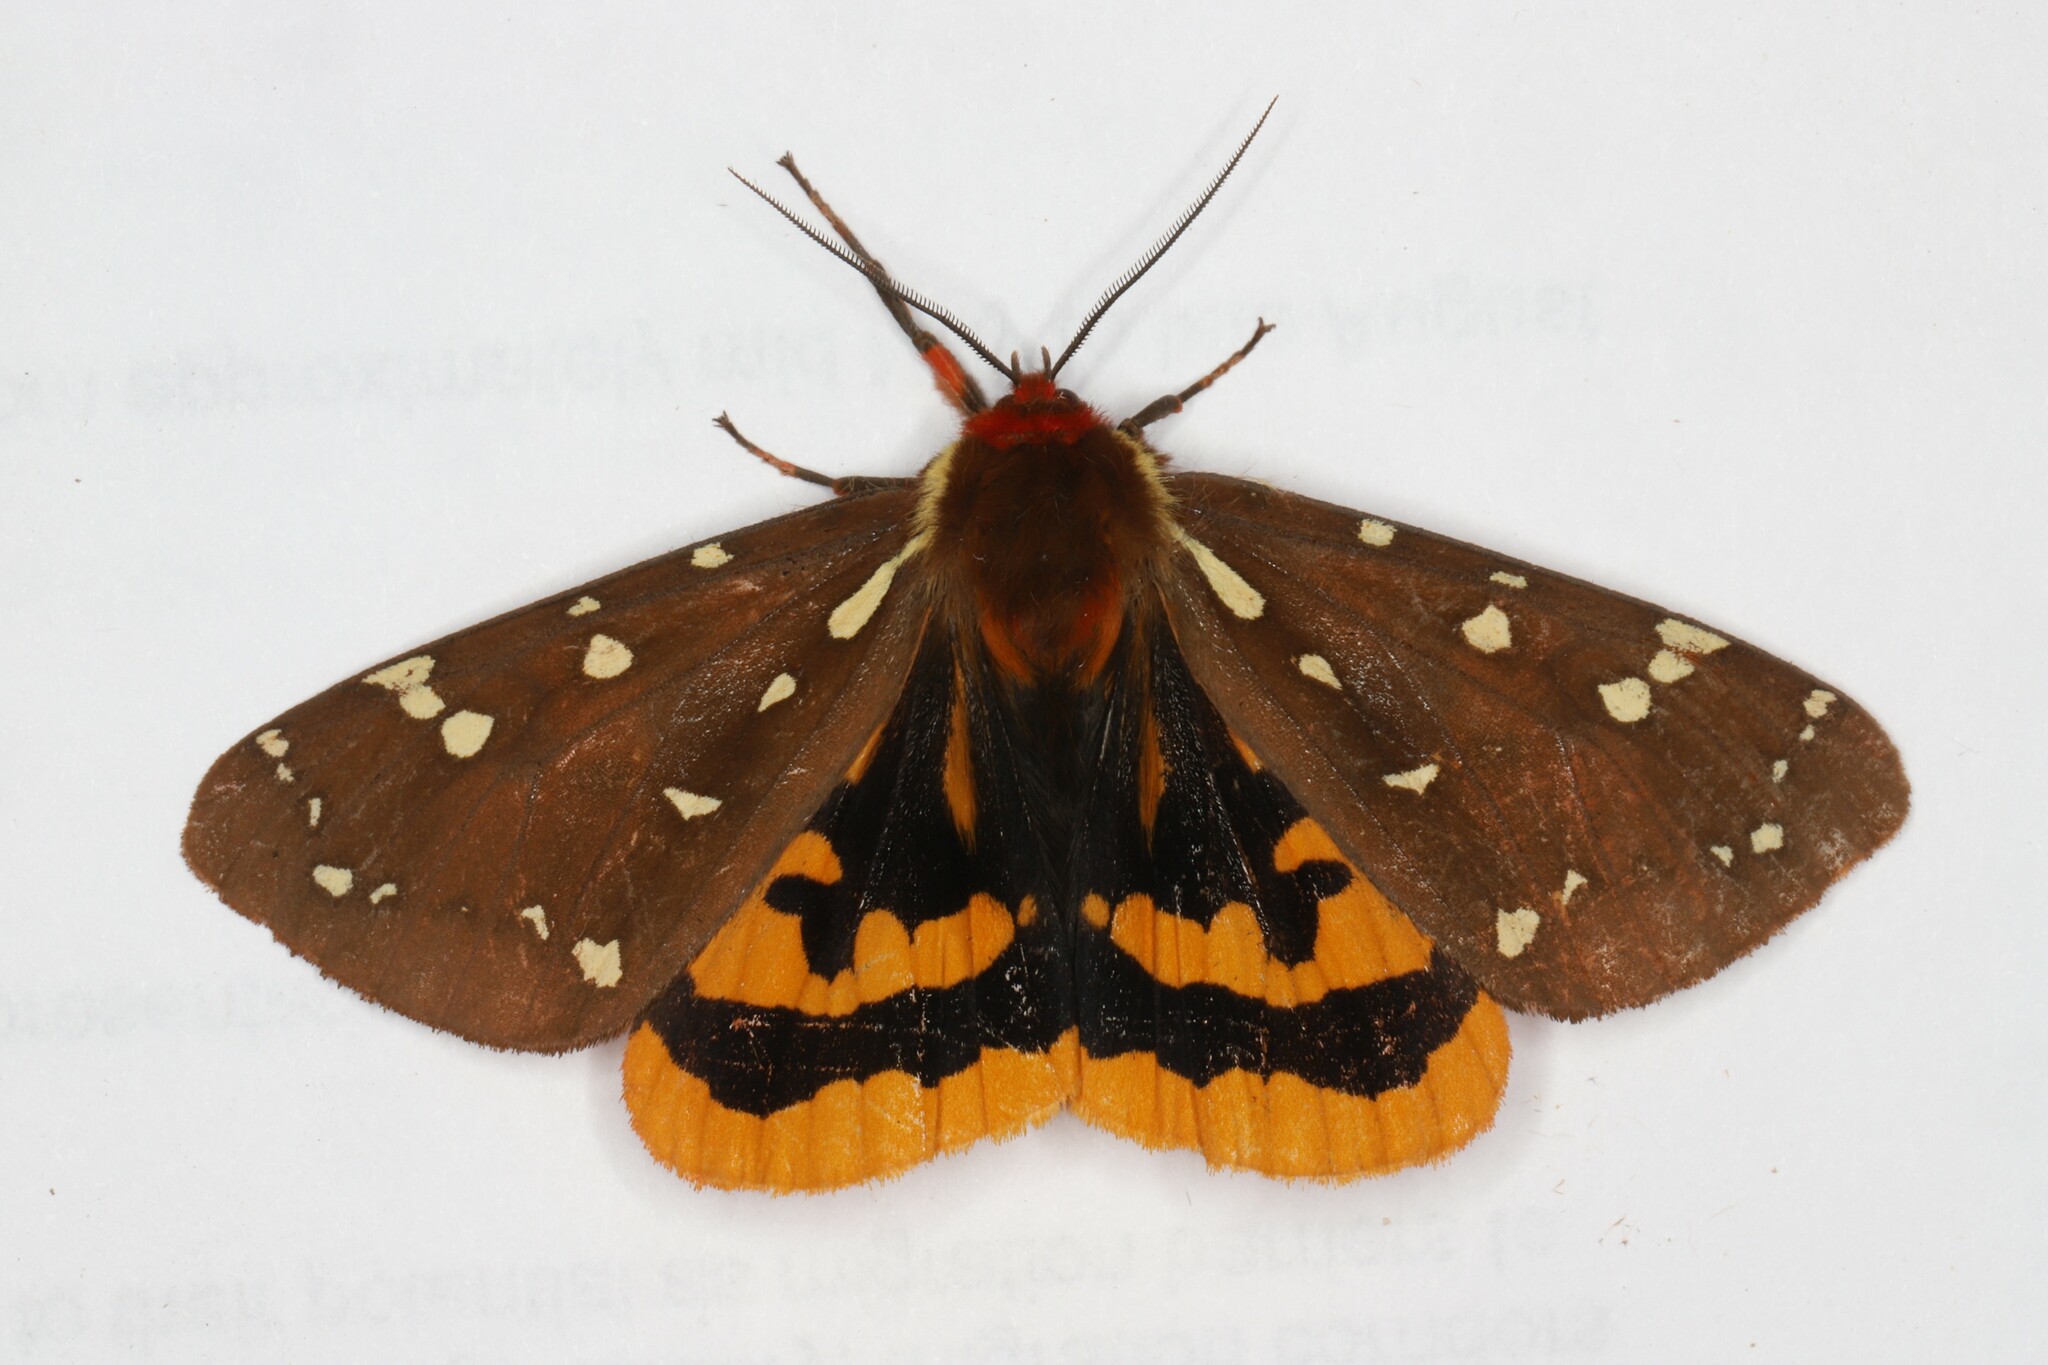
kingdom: Animalia
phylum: Arthropoda
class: Insecta
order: Lepidoptera
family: Erebidae
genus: Arctia
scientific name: Arctia parthenos
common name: St. lawrence tiger moth
